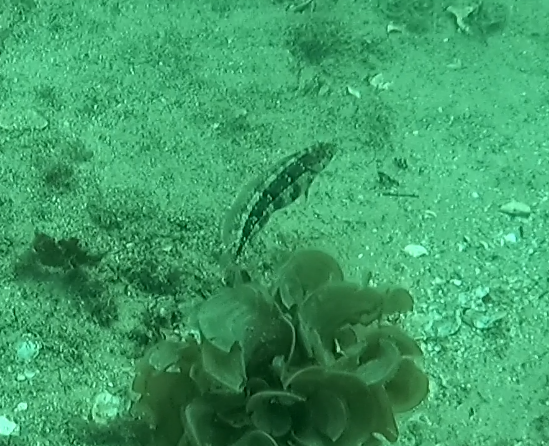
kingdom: Animalia
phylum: Chordata
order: Perciformes
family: Labridae
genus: Eupetrichthys
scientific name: Eupetrichthys angustipes
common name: Snake-skin wrasse
